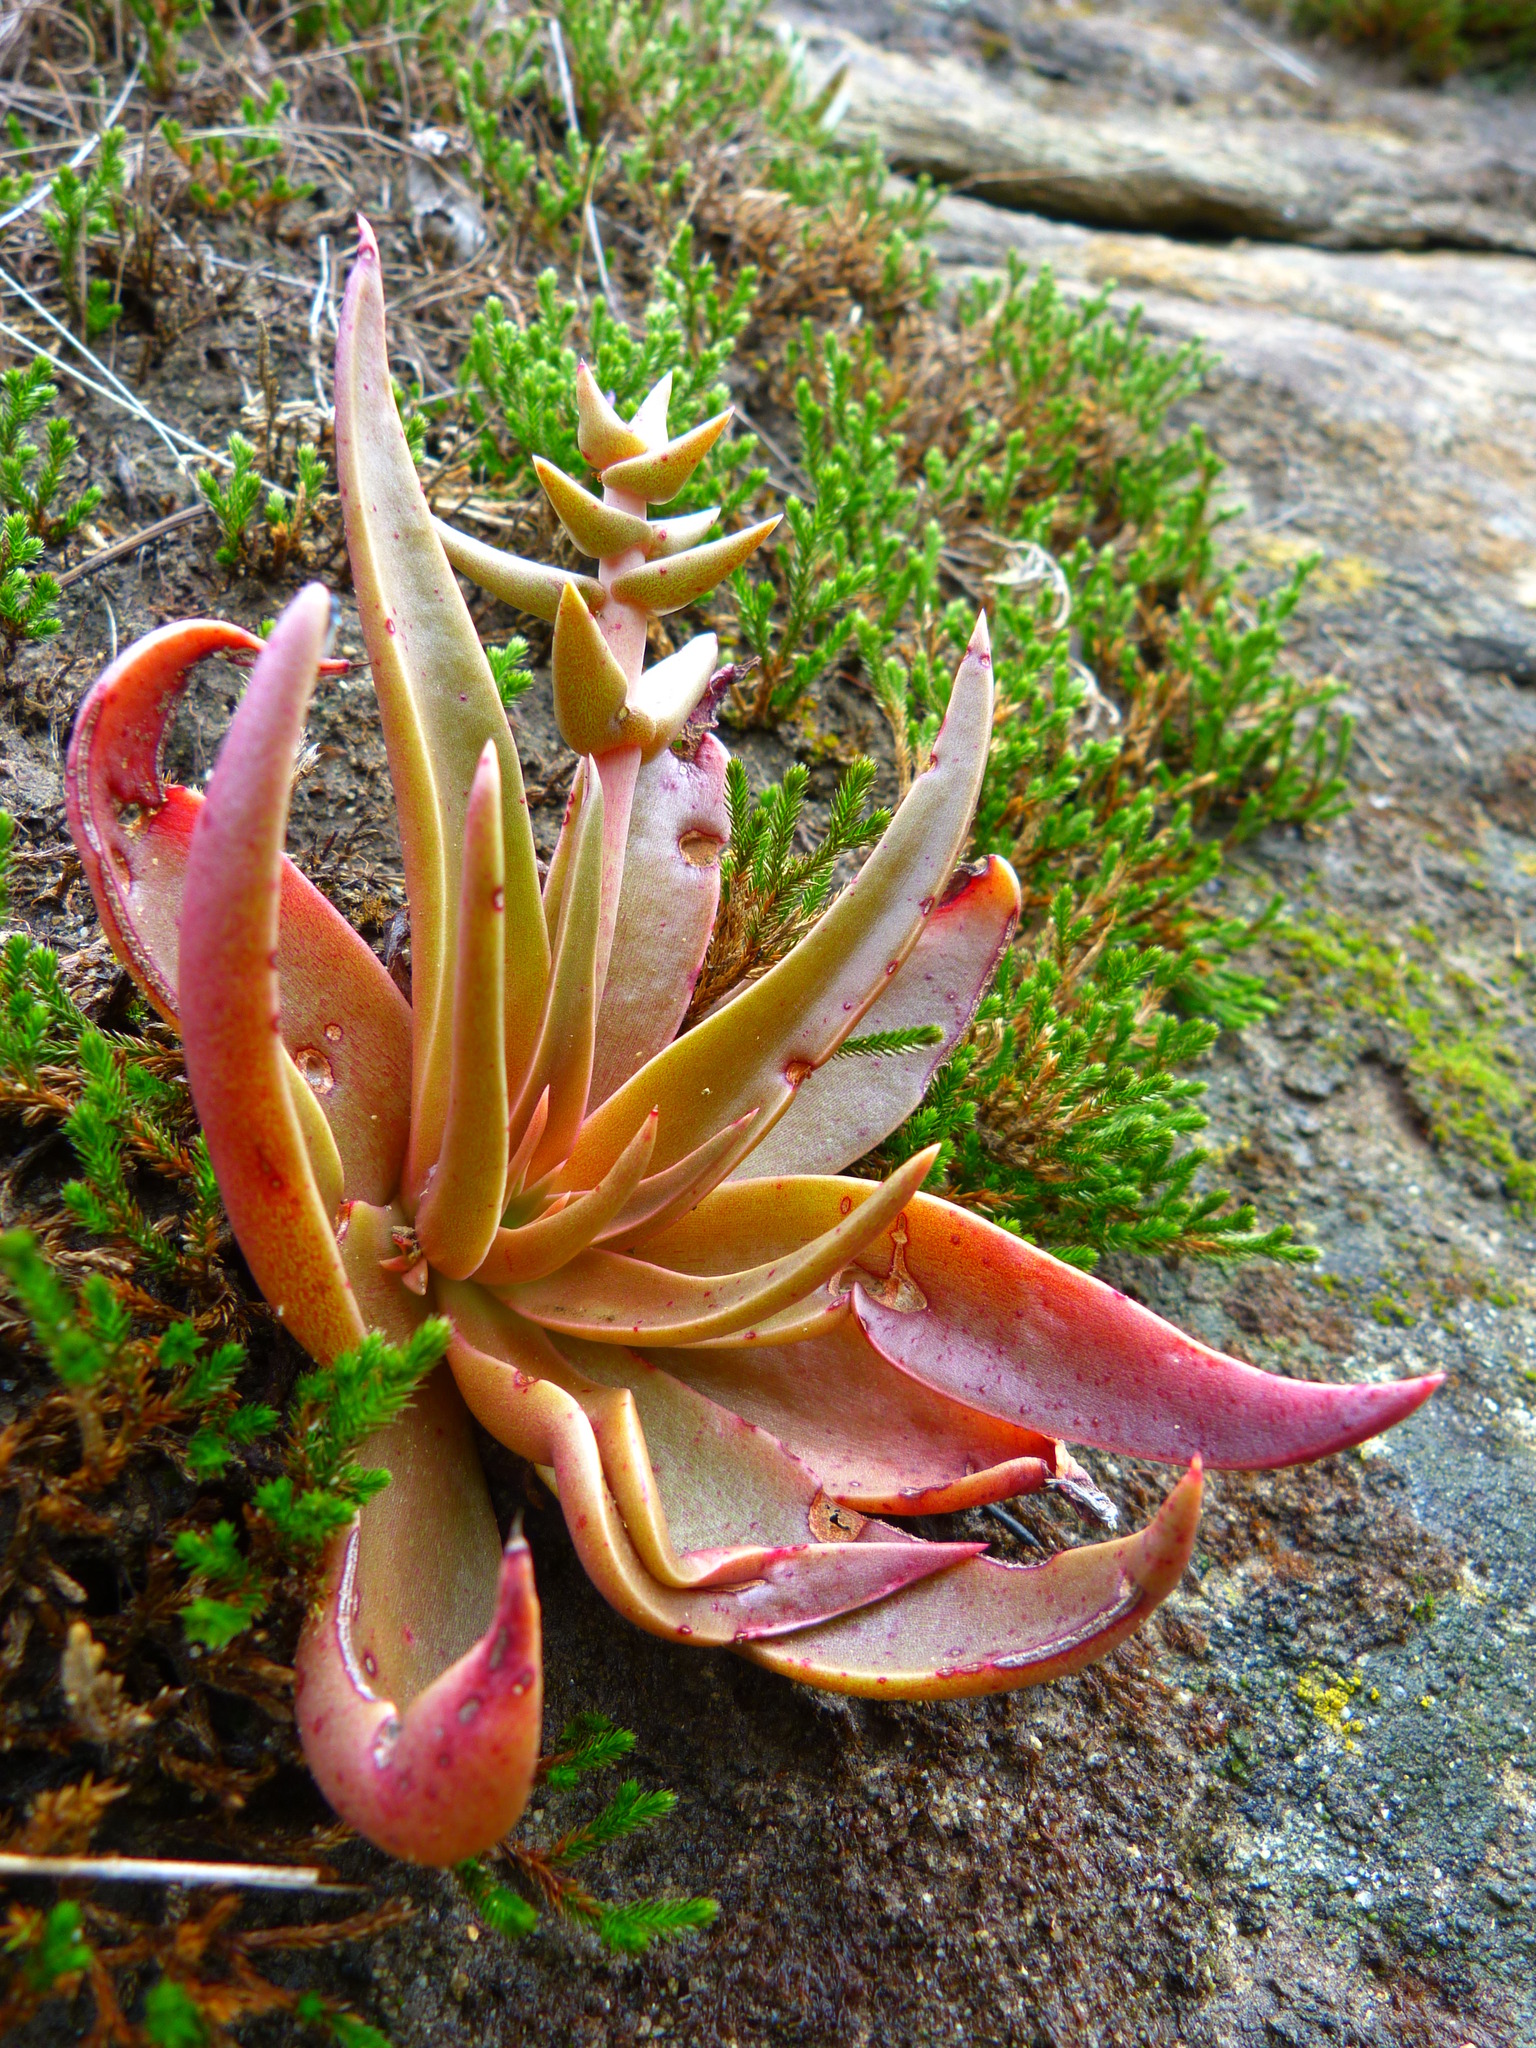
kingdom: Plantae
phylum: Tracheophyta
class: Magnoliopsida
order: Saxifragales
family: Crassulaceae
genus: Dudleya
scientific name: Dudleya lanceolata
